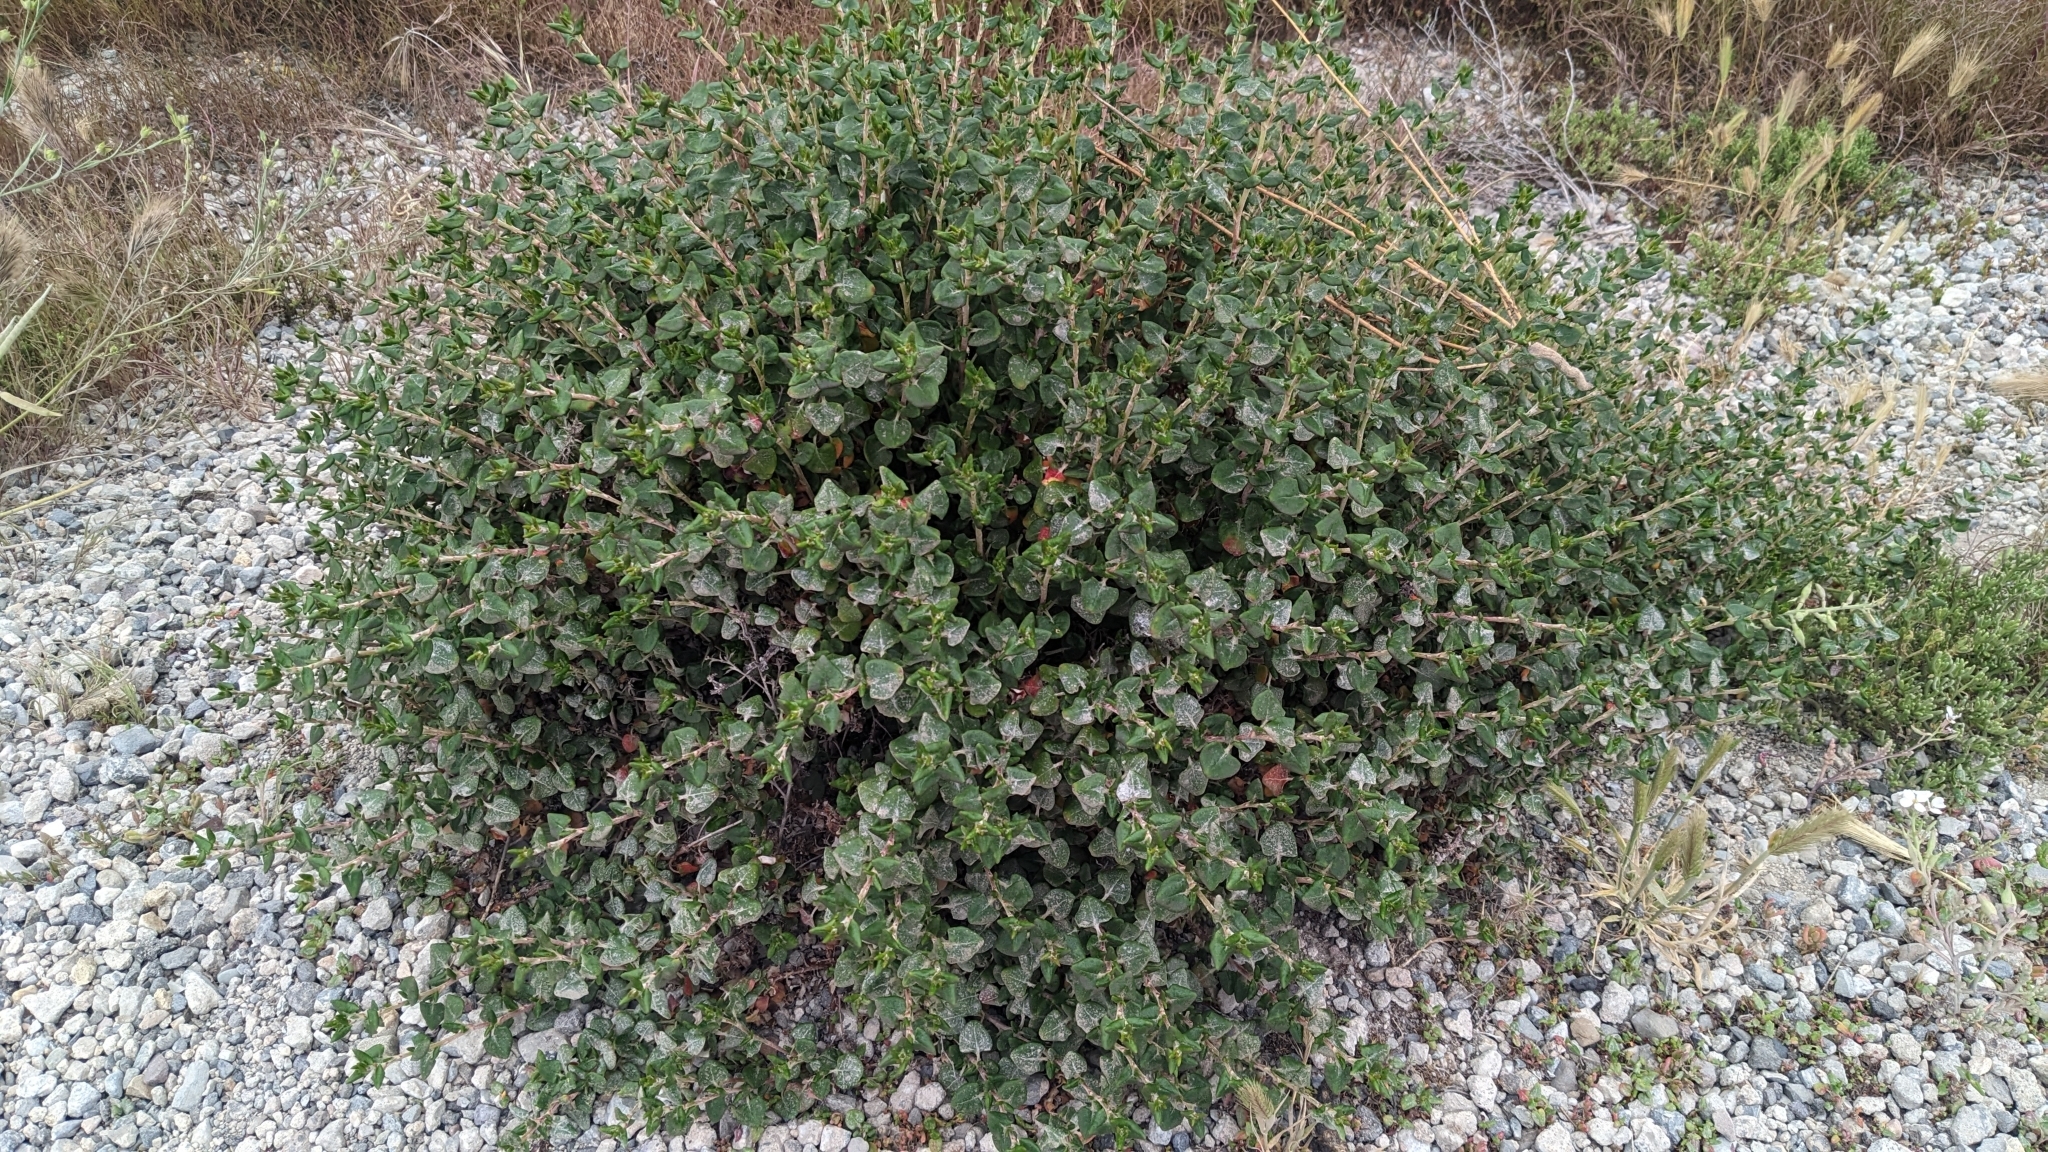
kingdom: Plantae
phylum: Tracheophyta
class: Magnoliopsida
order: Caryophyllales
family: Polygonaceae
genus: Eriogonum
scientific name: Eriogonum parvifolium
